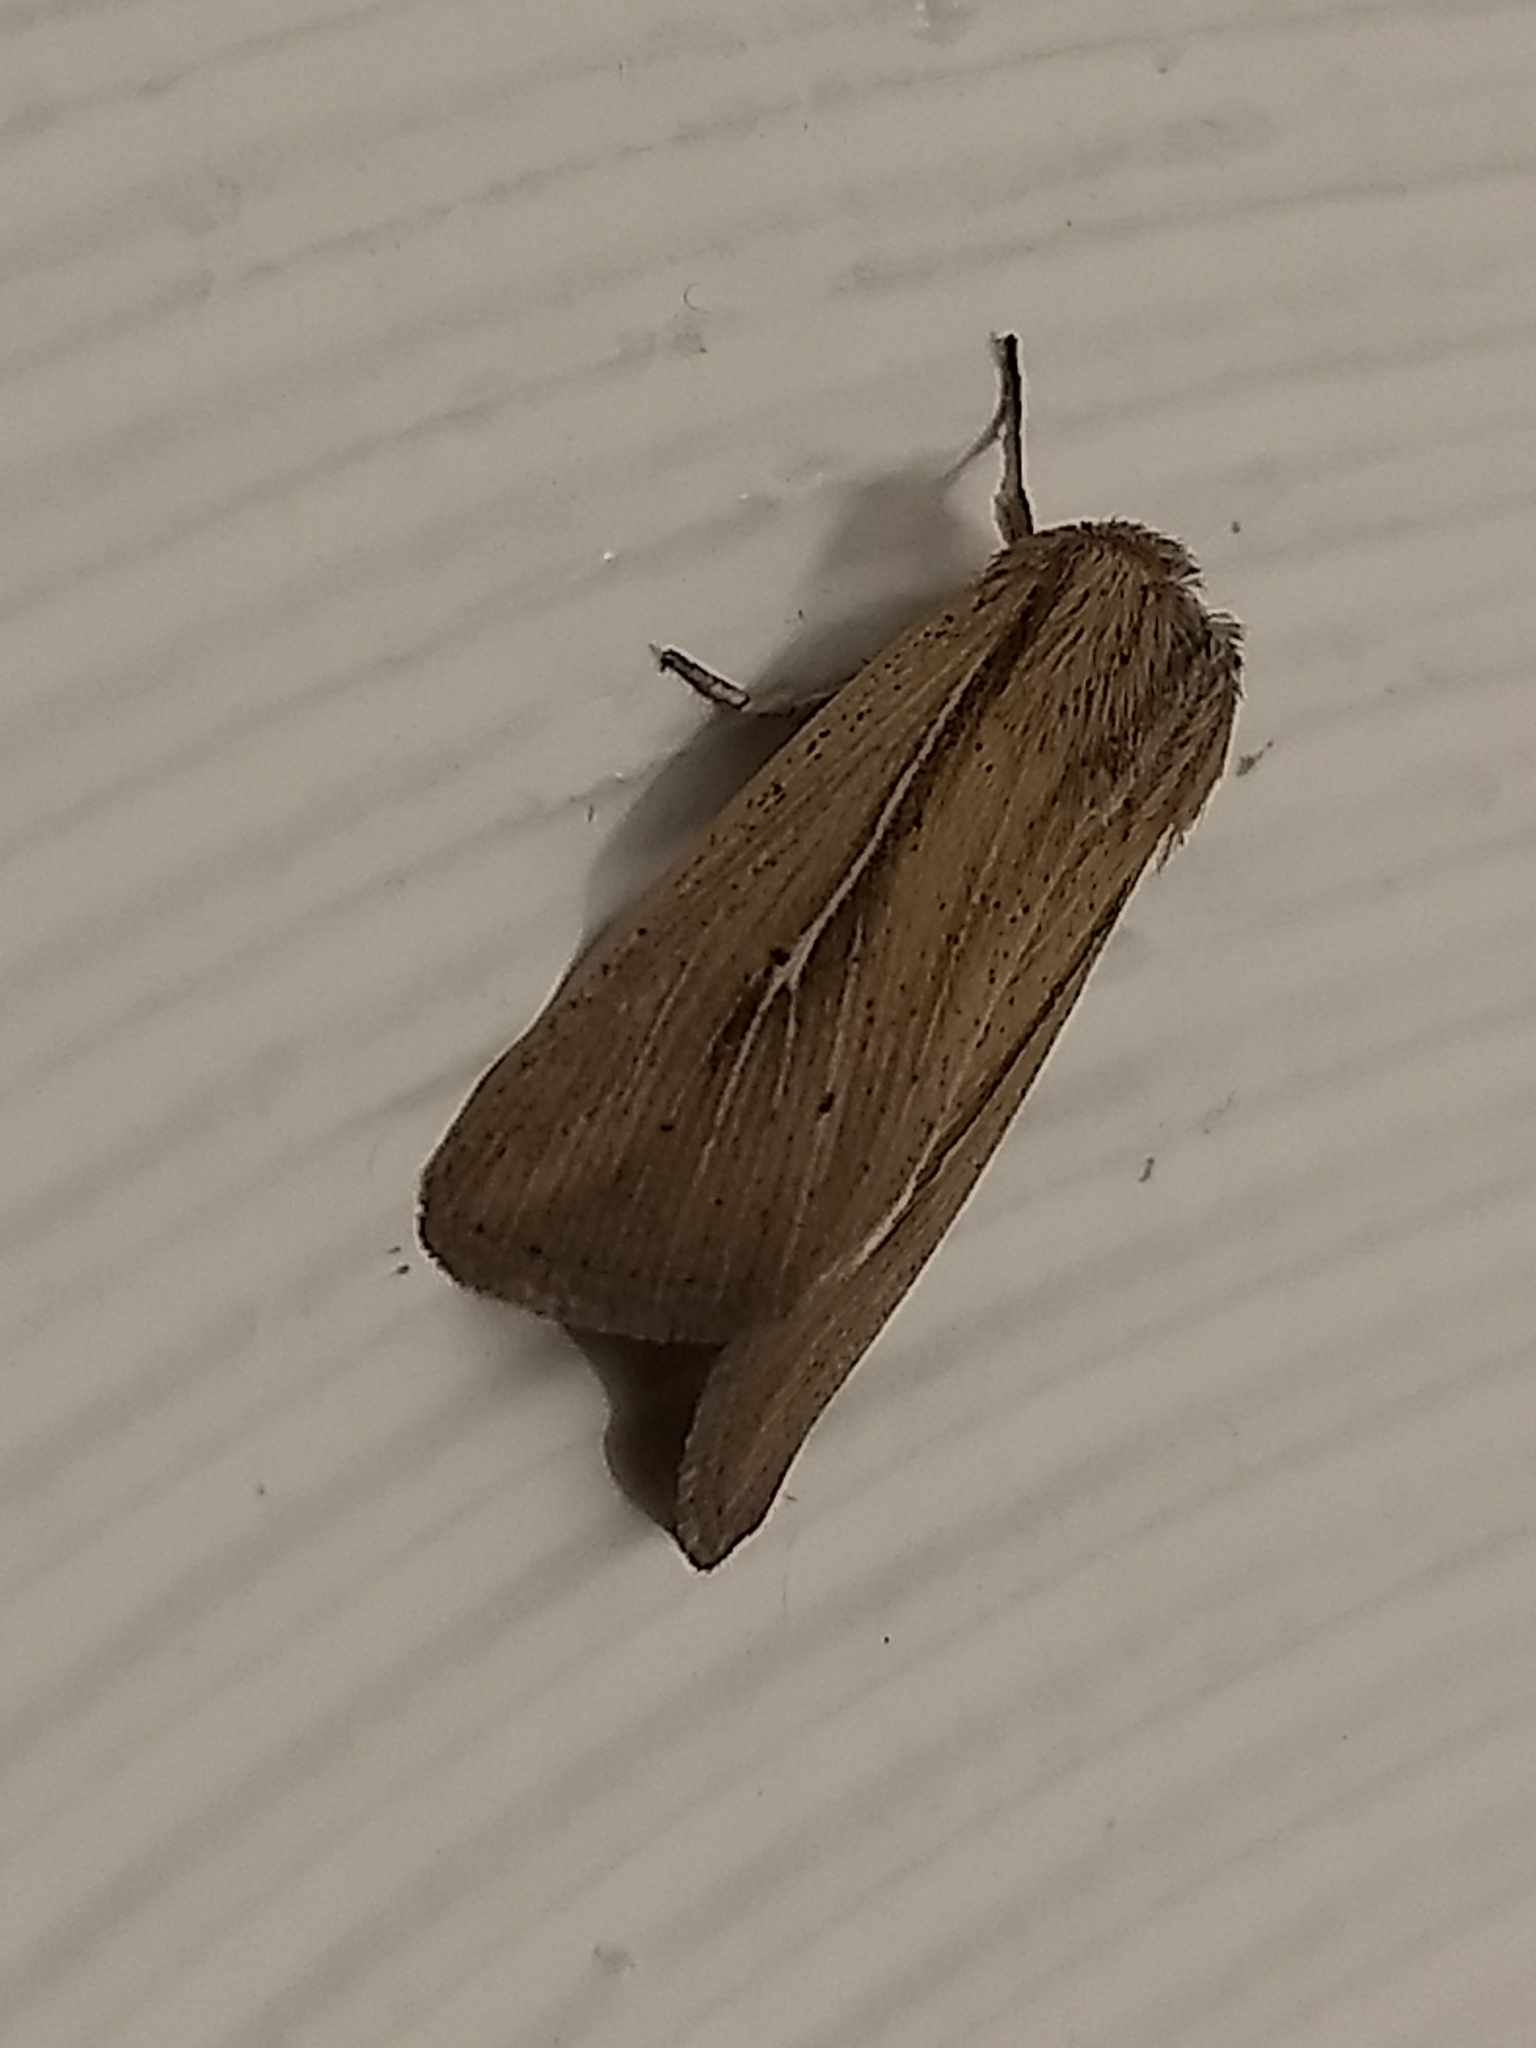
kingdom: Animalia
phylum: Arthropoda
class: Insecta
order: Lepidoptera
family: Noctuidae
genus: Leucania
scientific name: Leucania phragmitidicola
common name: Phragmites wainscot
